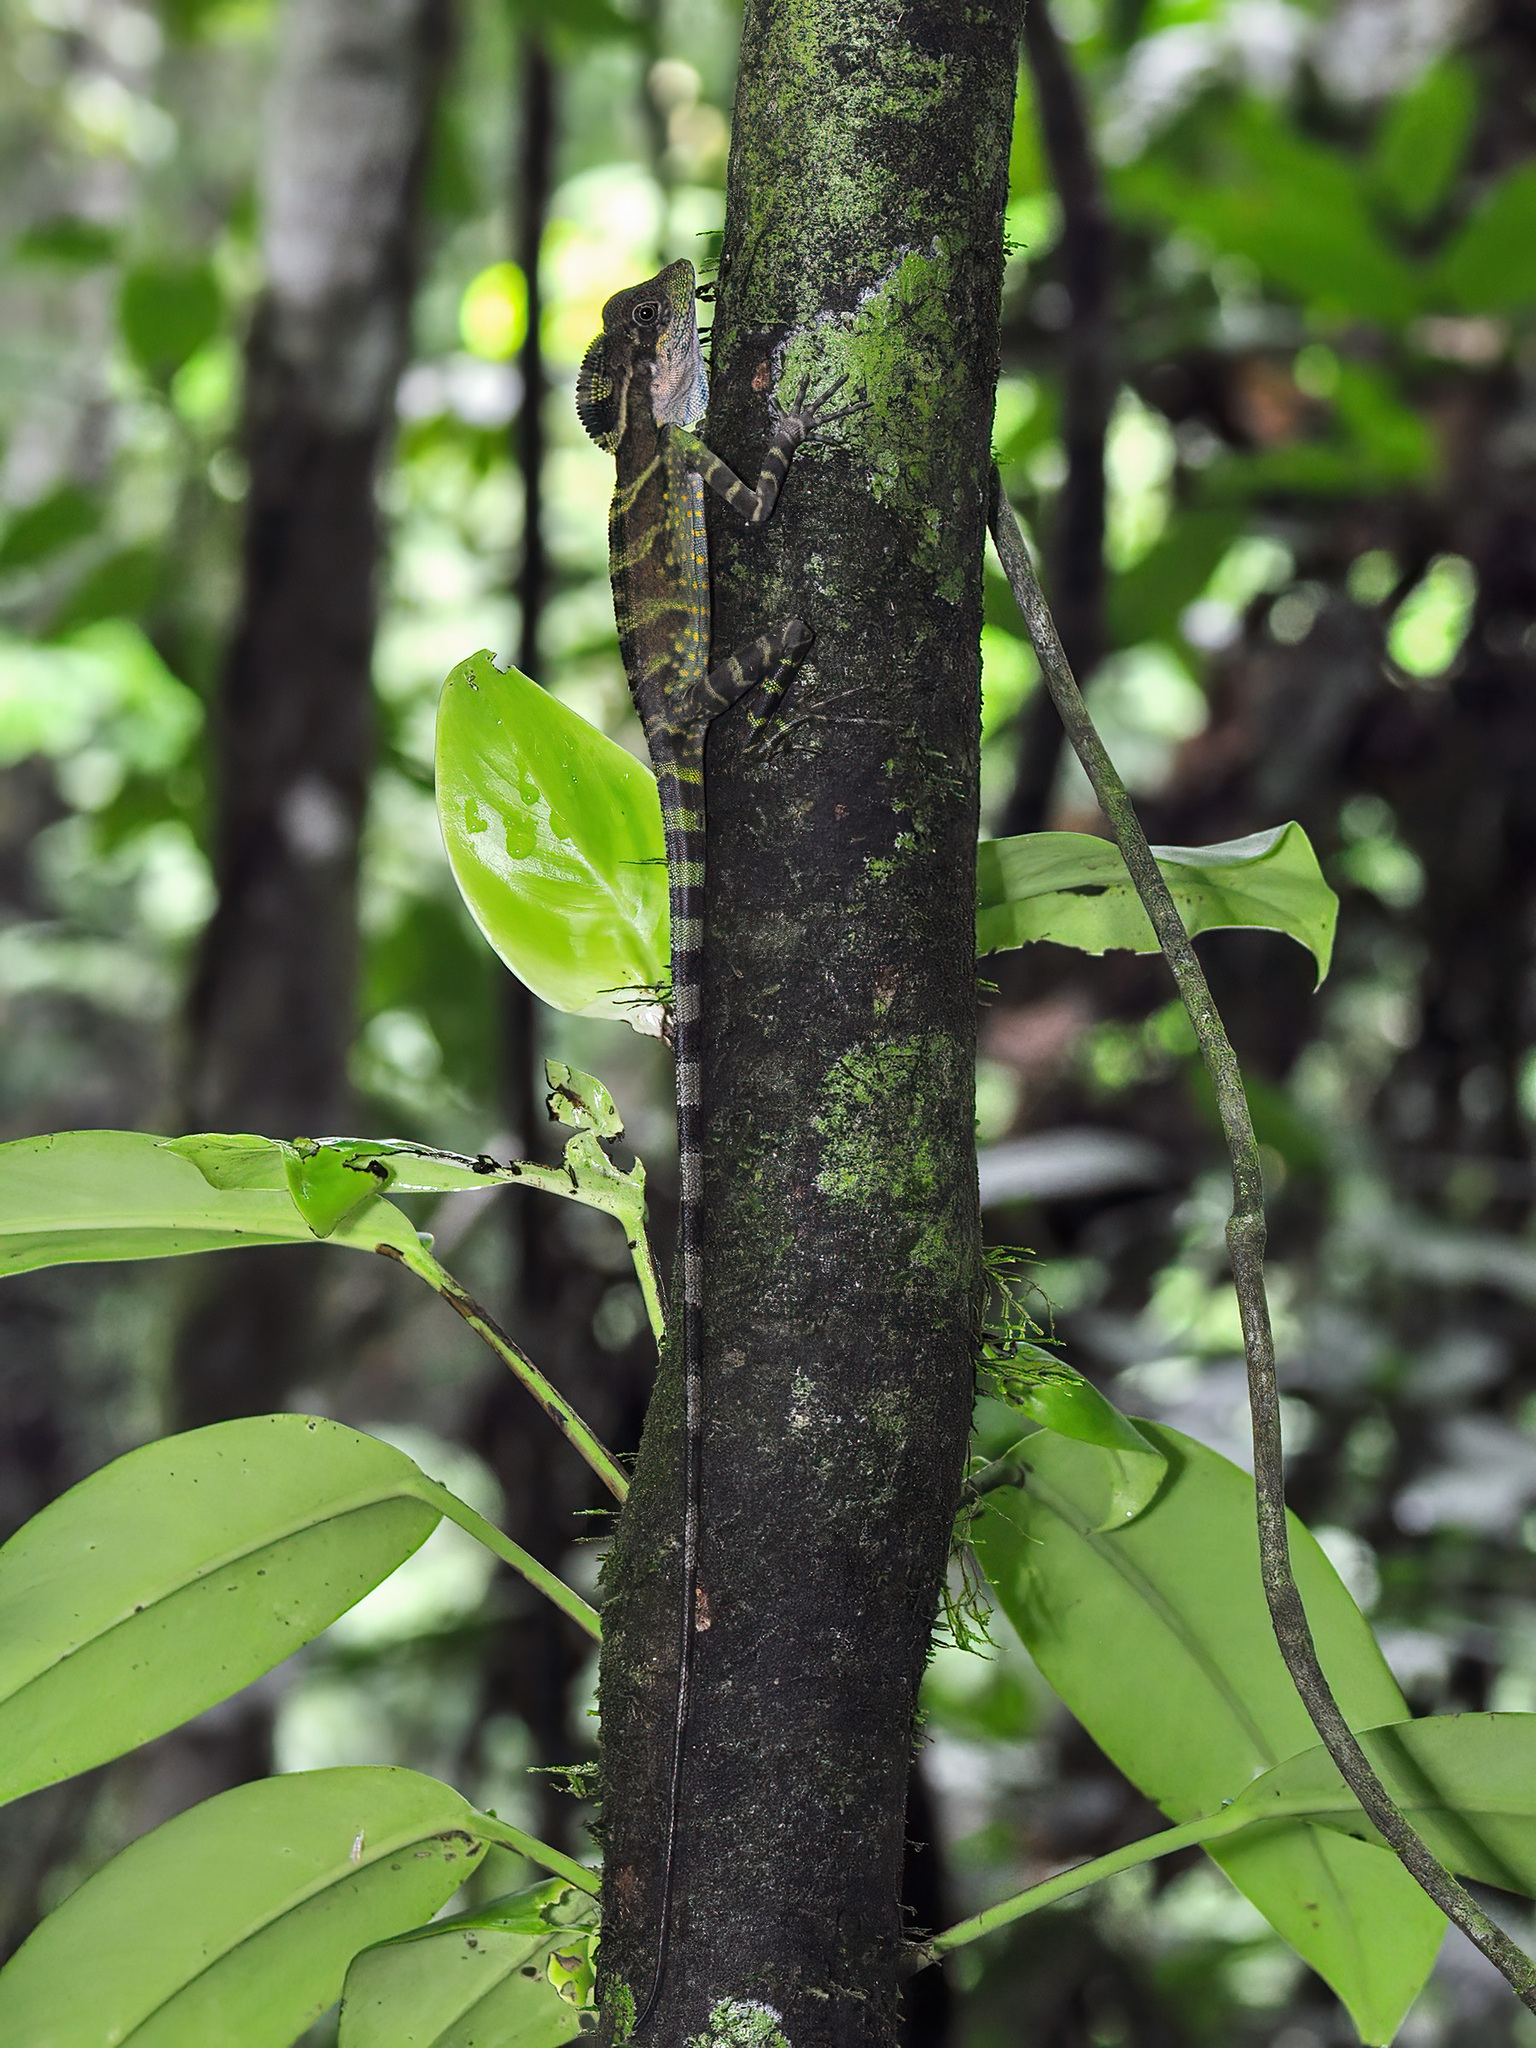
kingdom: Animalia
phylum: Chordata
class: Squamata
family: Agamidae
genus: Gonocephalus
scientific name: Gonocephalus grandis
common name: Giant forest dragon
